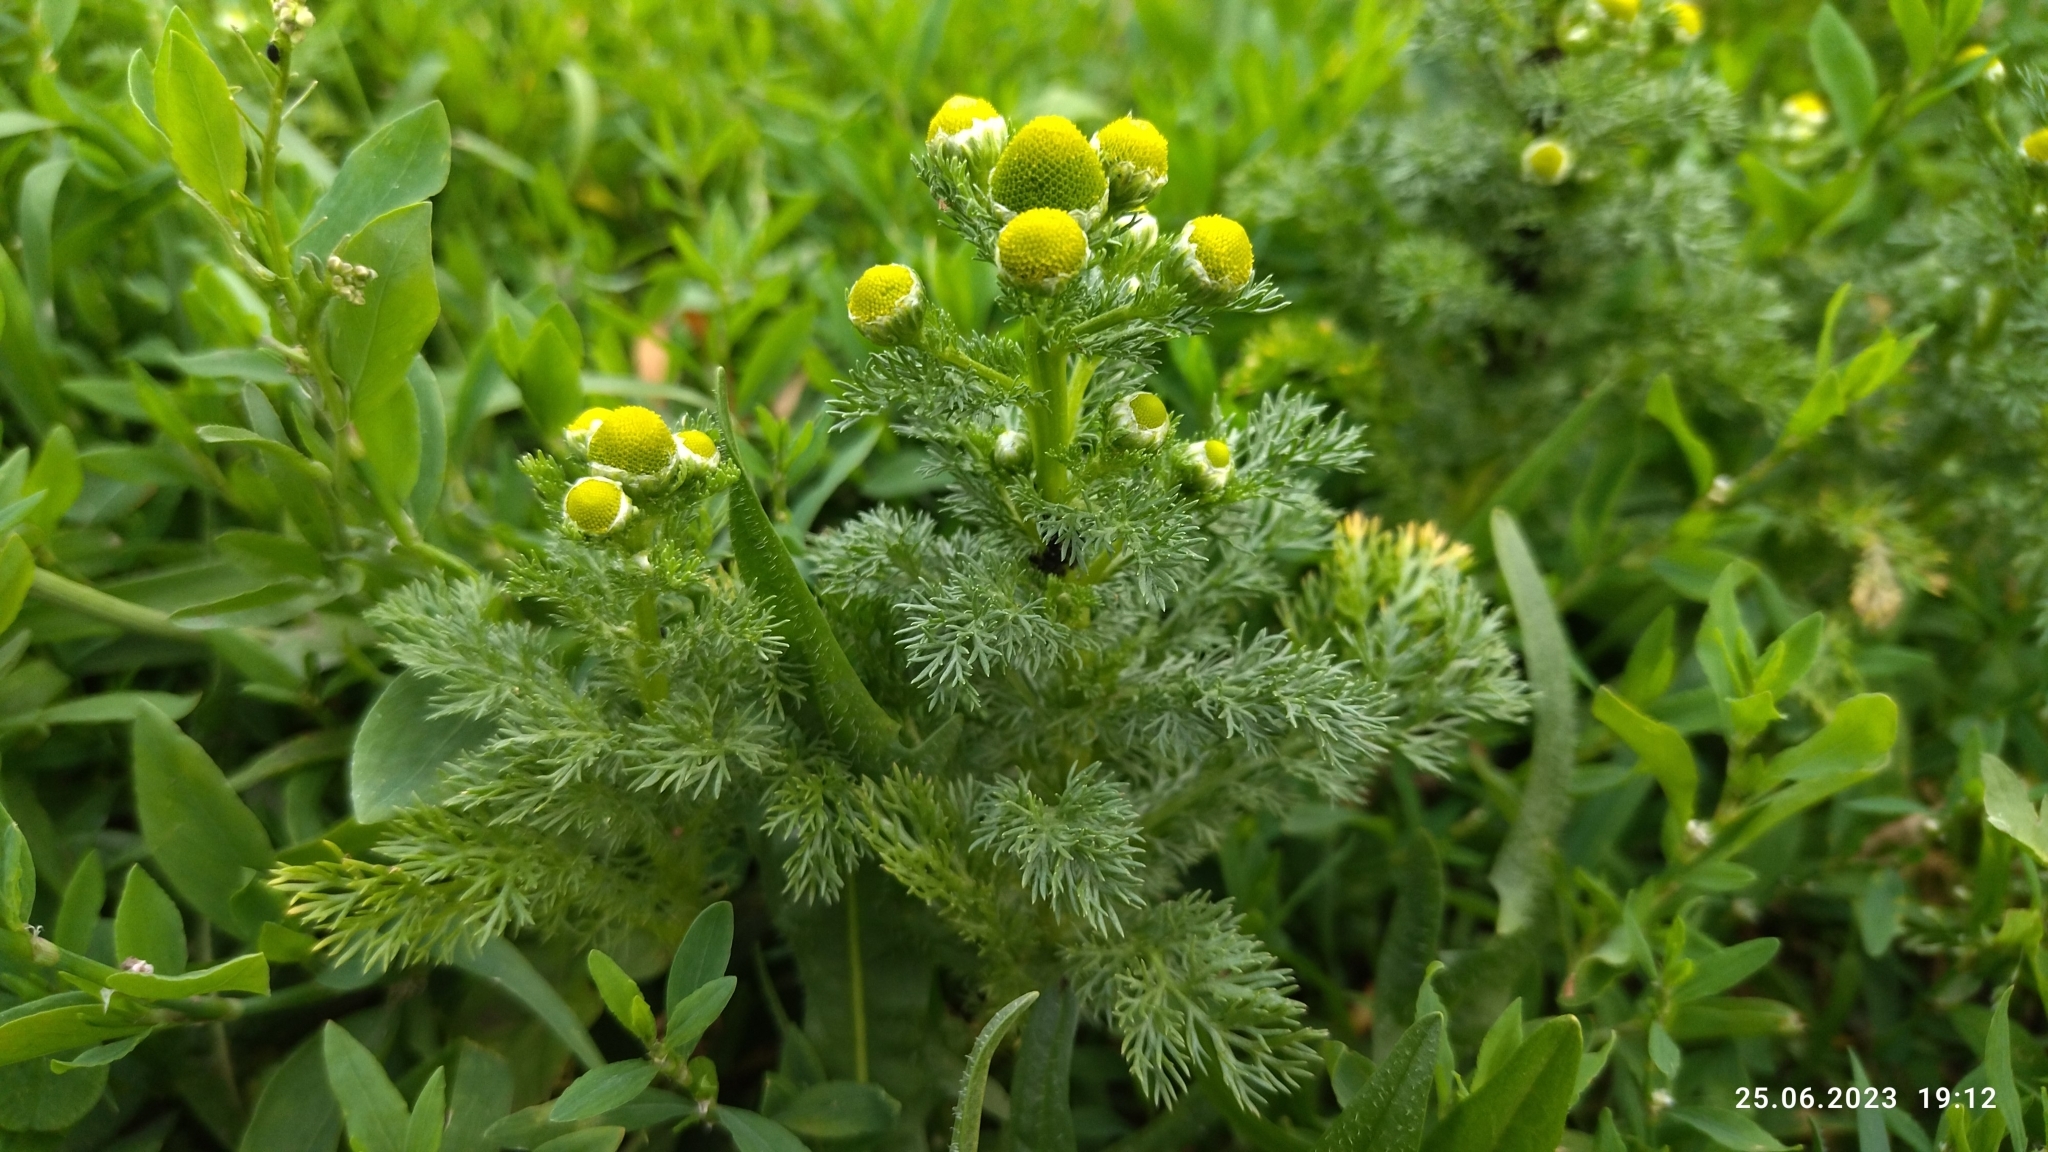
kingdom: Plantae
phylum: Tracheophyta
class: Magnoliopsida
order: Asterales
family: Asteraceae
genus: Matricaria
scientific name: Matricaria discoidea
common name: Disc mayweed
